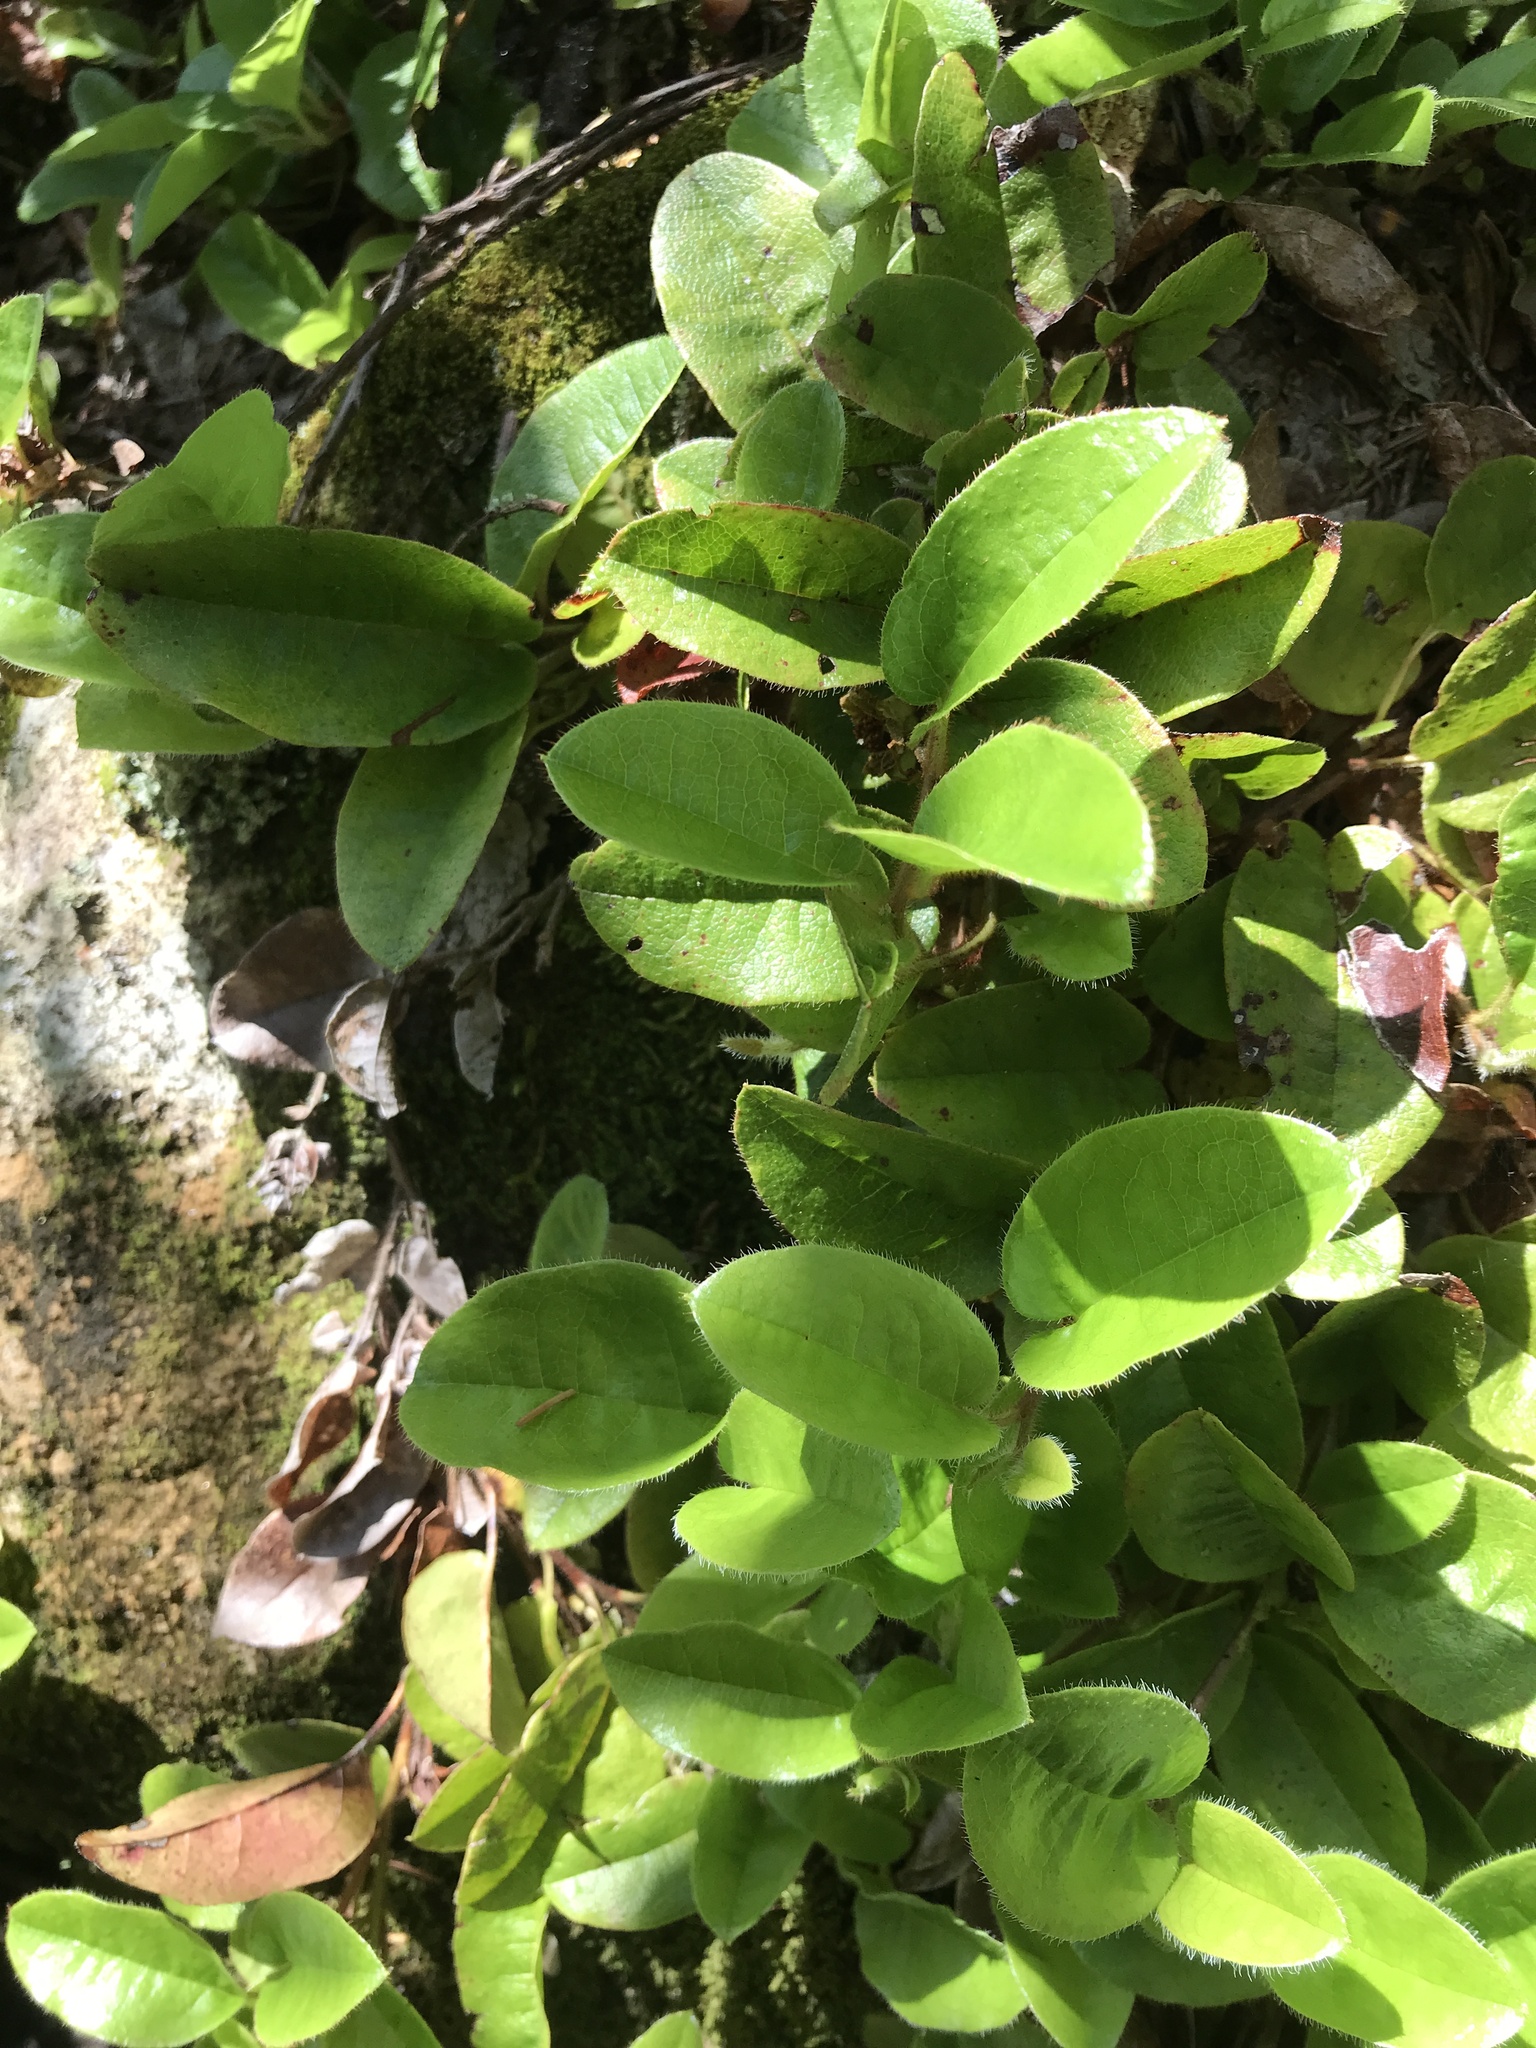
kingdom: Plantae
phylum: Tracheophyta
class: Magnoliopsida
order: Ericales
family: Ericaceae
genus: Epigaea
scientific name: Epigaea repens
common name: Gravelroot
